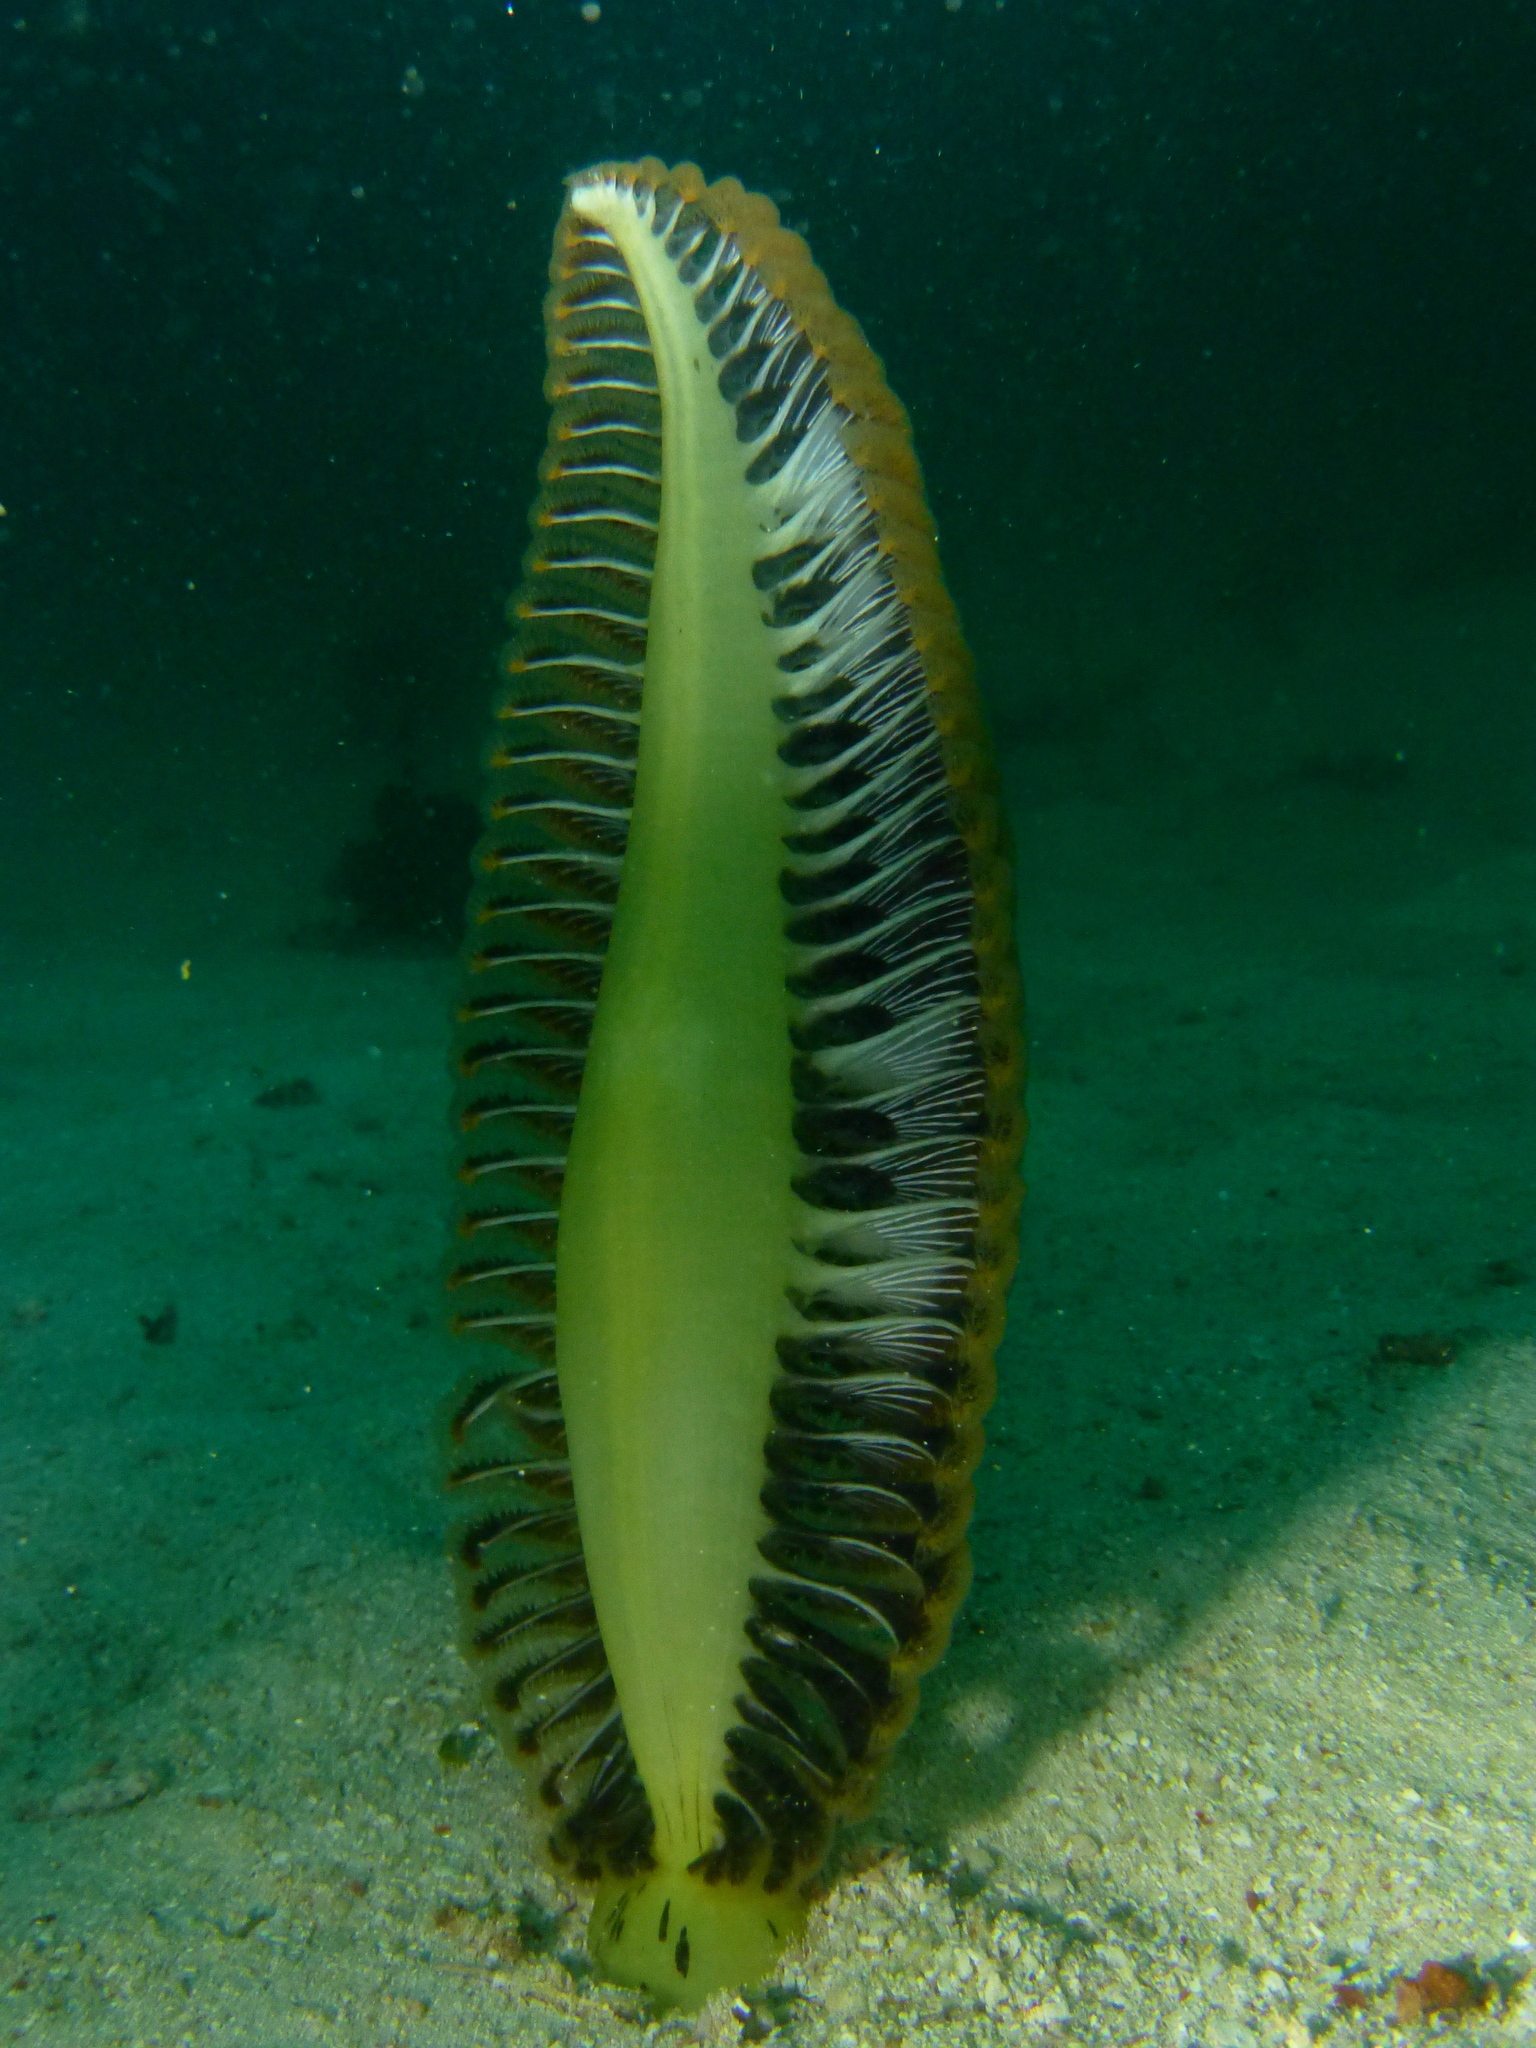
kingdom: Animalia
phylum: Cnidaria
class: Anthozoa
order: Scleralcyonacea
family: Pennatulidae
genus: Pteroeides
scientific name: Pteroeides argenteum
